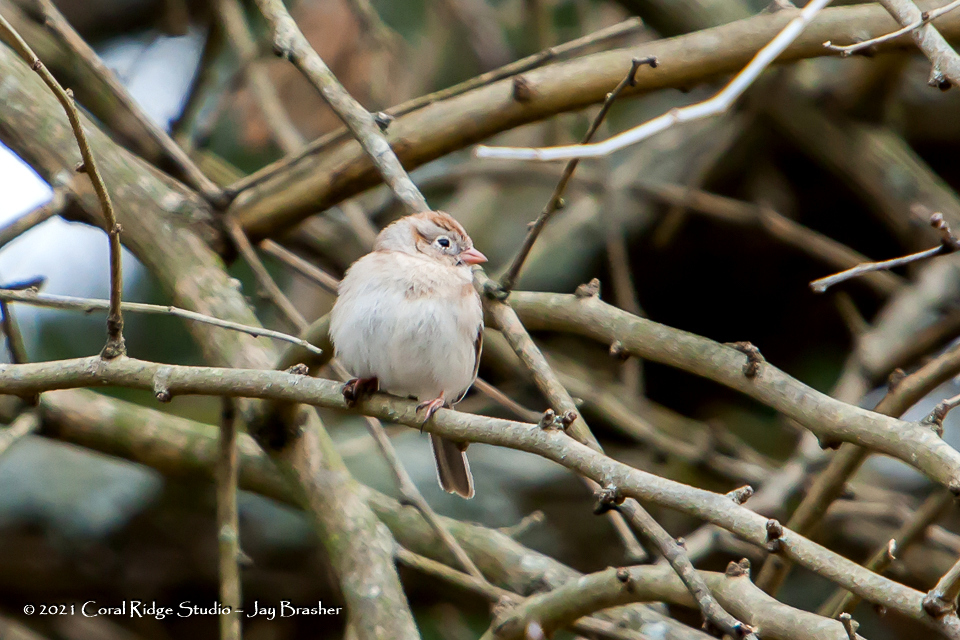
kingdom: Animalia
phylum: Chordata
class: Aves
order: Passeriformes
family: Passerellidae
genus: Spizella
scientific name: Spizella pusilla
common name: Field sparrow
